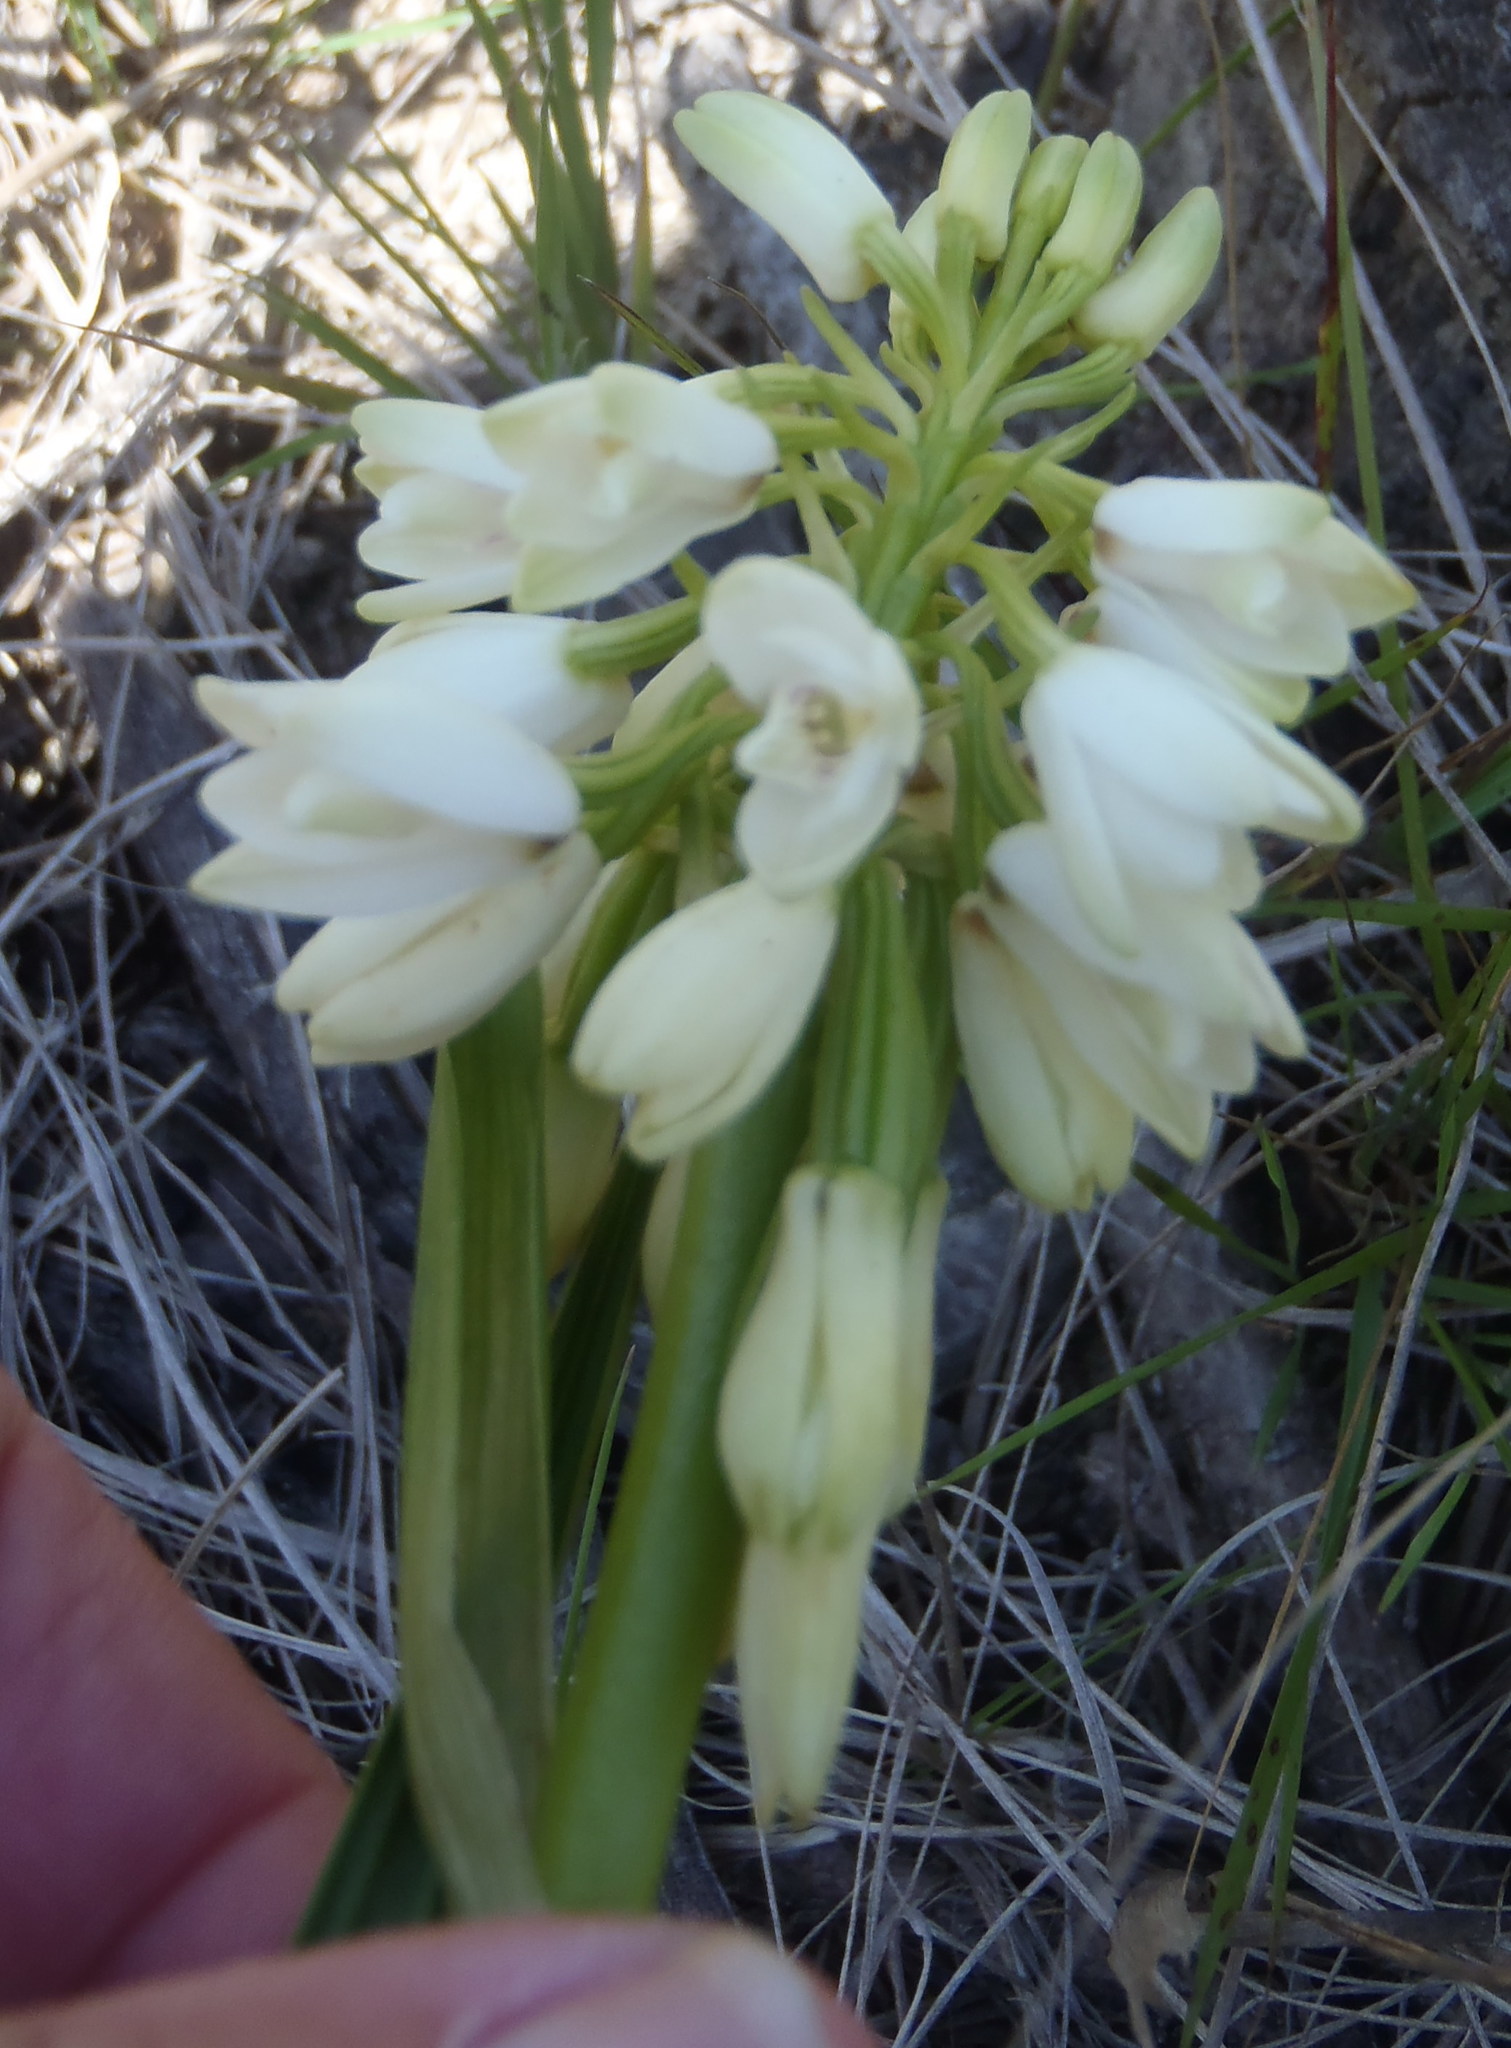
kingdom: Plantae
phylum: Tracheophyta
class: Liliopsida
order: Asparagales
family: Orchidaceae
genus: Eulophia
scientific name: Eulophia aculeata
